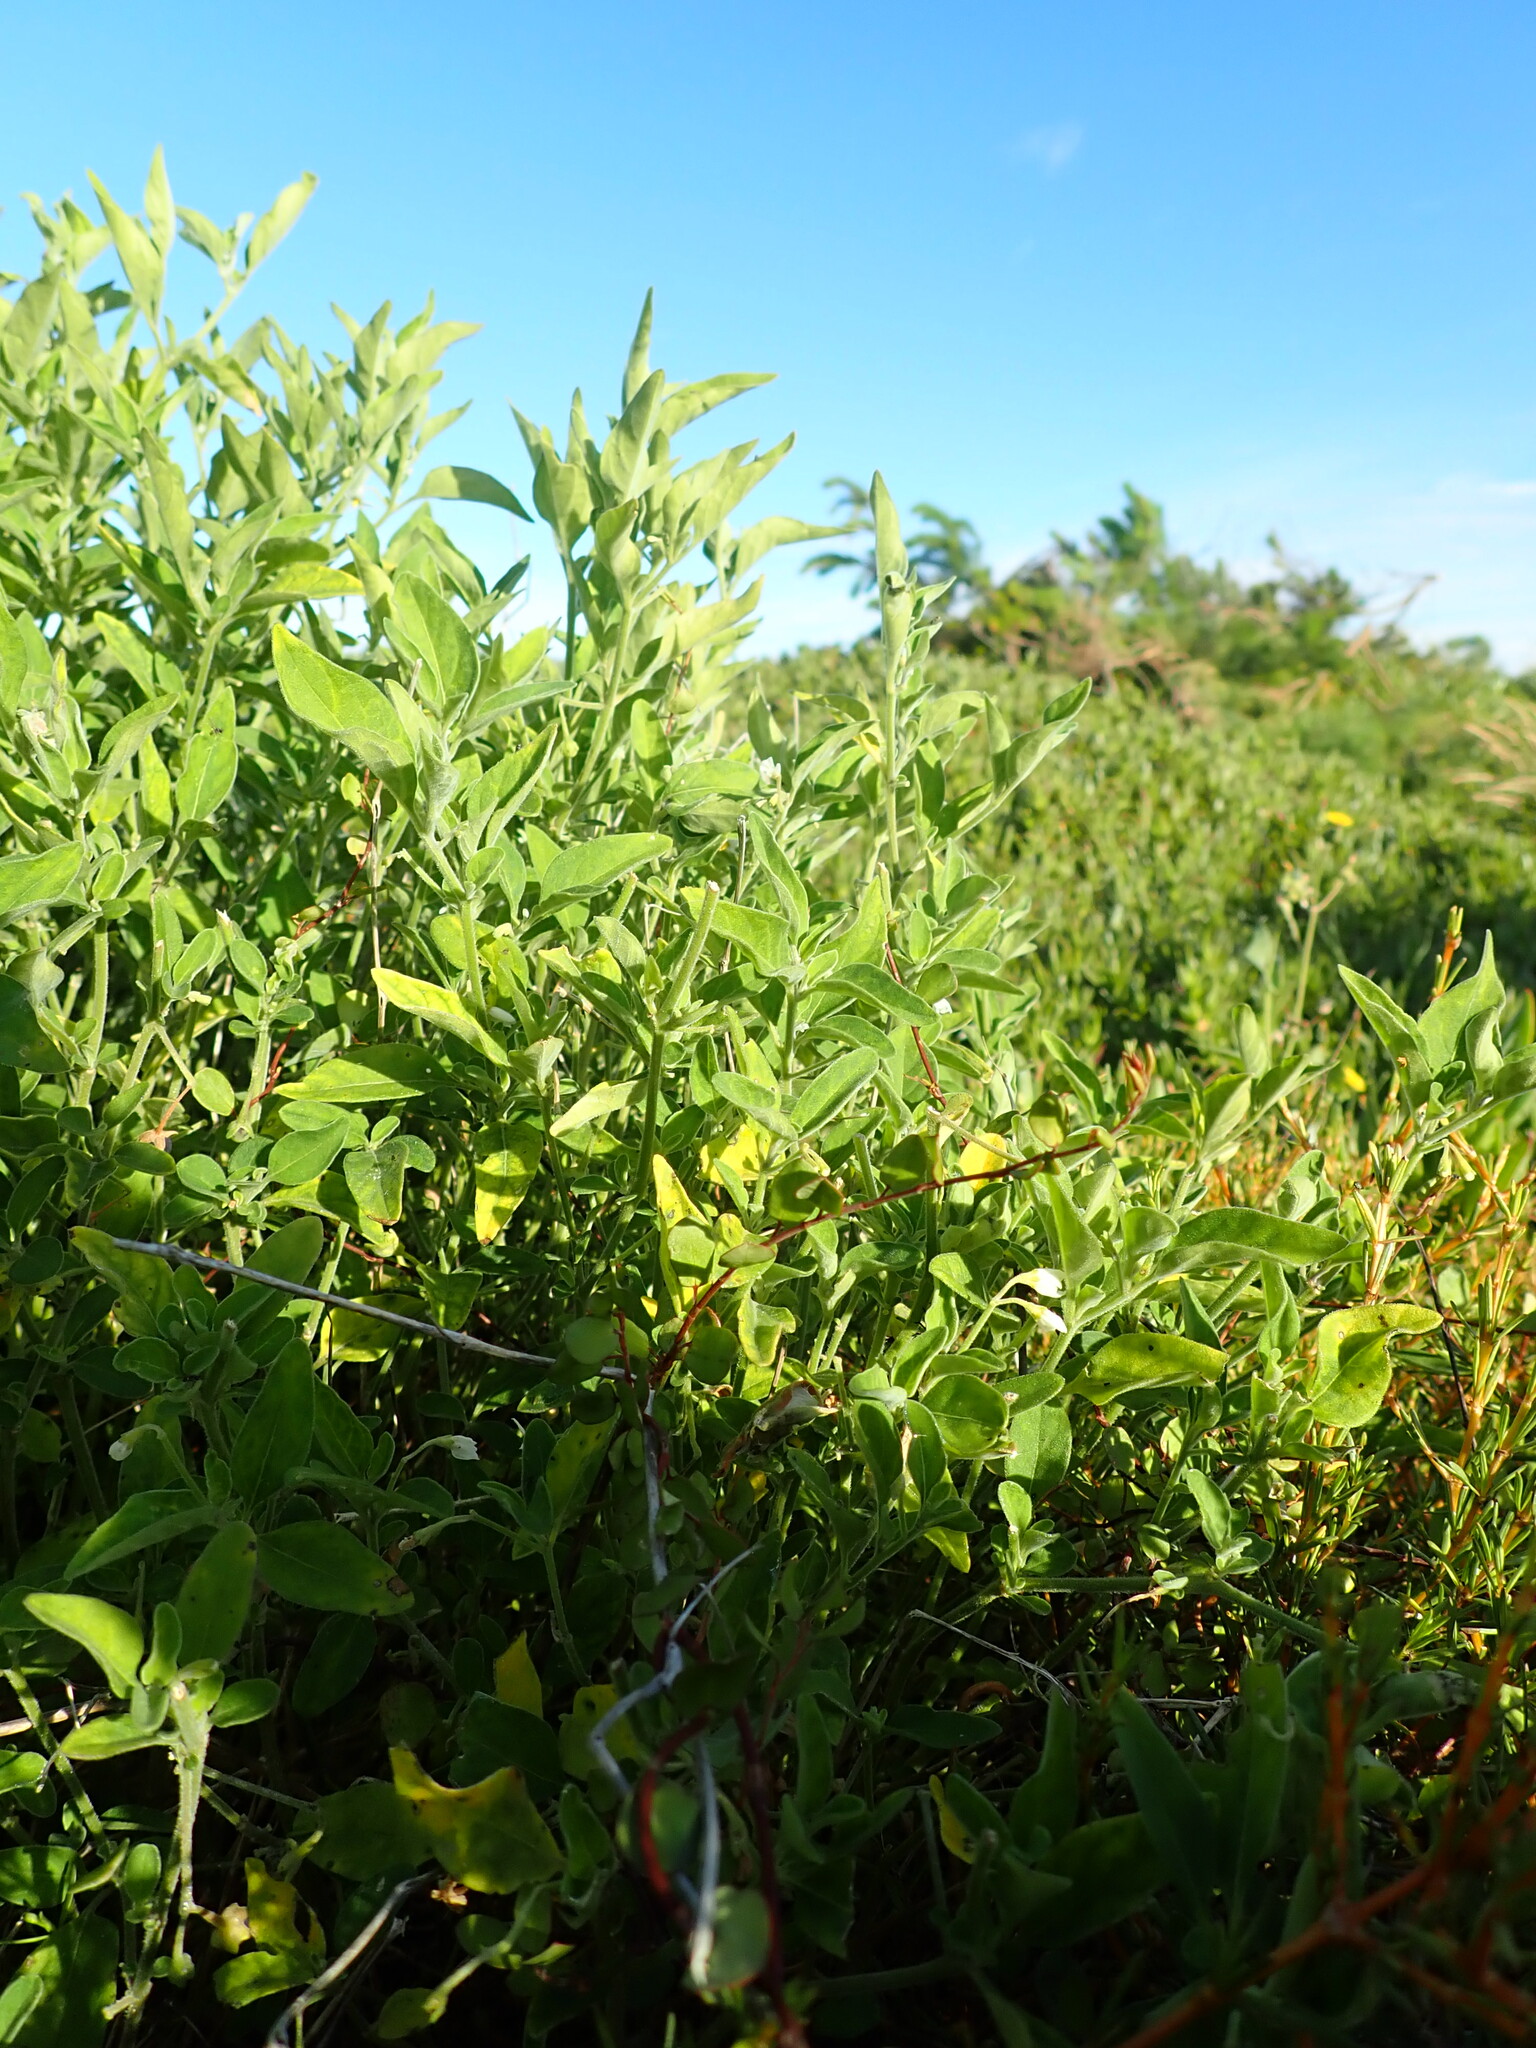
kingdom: Plantae
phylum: Tracheophyta
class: Magnoliopsida
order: Solanales
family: Solanaceae
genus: Solanum
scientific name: Solanum chenopodioides
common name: Tall nightshade
